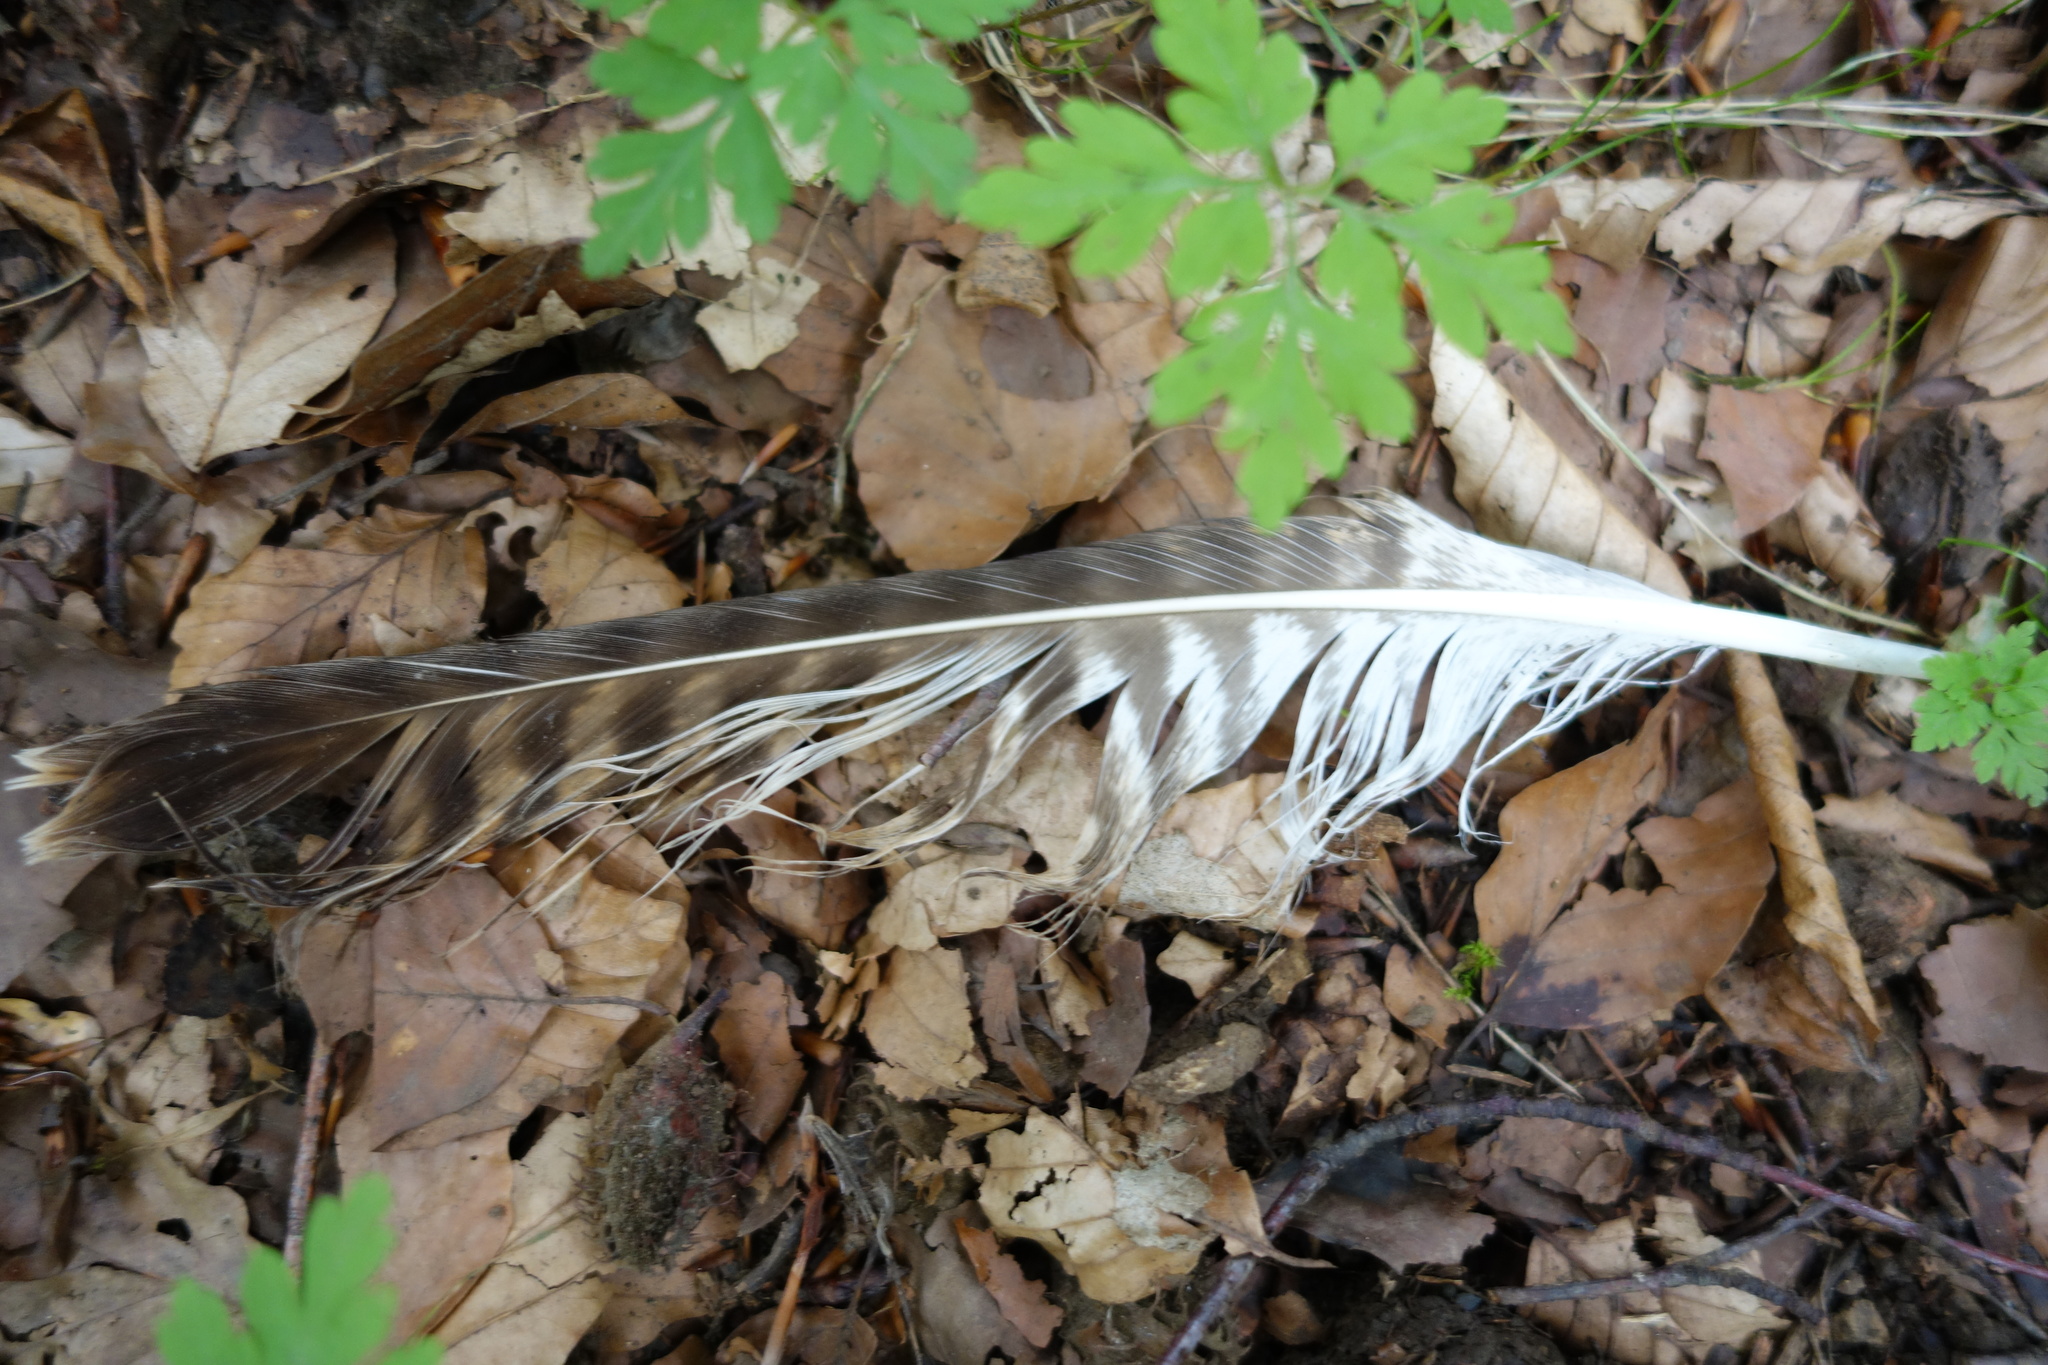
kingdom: Animalia
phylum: Chordata
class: Aves
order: Accipitriformes
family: Accipitridae
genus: Buteo
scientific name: Buteo buteo
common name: Common buzzard
